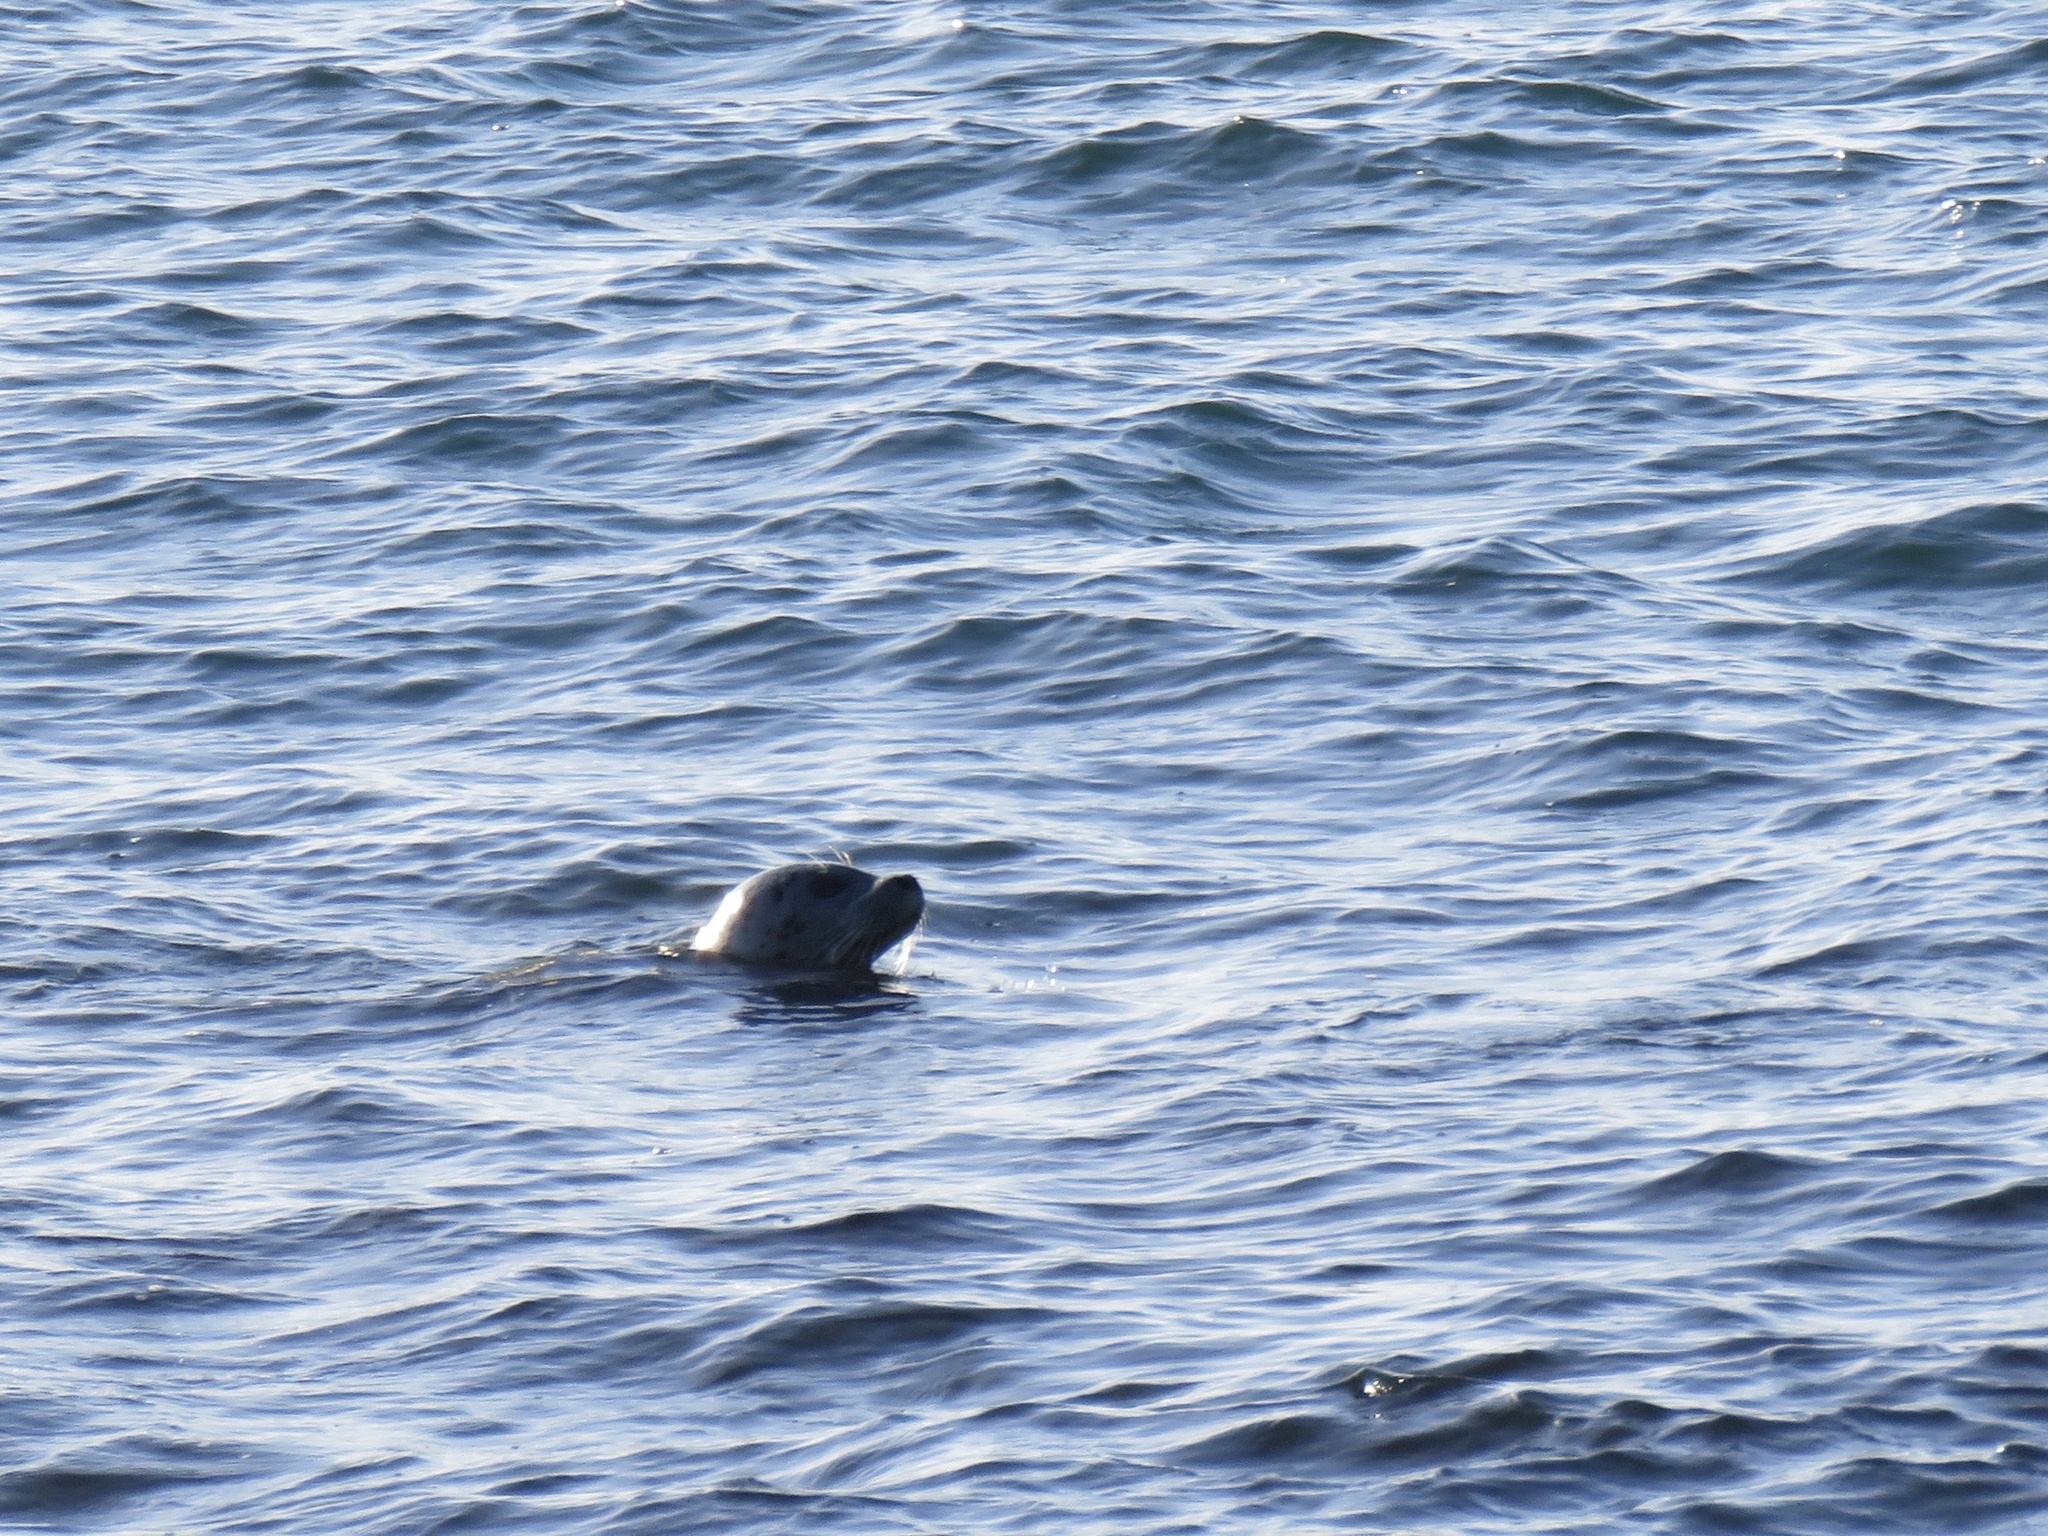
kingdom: Animalia
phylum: Chordata
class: Mammalia
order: Carnivora
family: Phocidae
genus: Phoca
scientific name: Phoca vitulina
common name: Harbor seal
